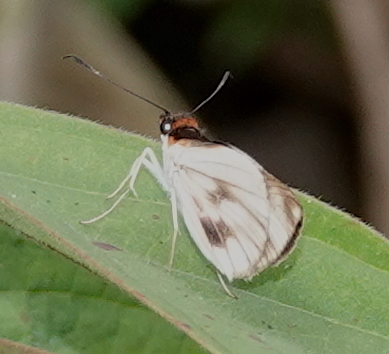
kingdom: Animalia
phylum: Arthropoda
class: Insecta
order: Lepidoptera
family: Hesperiidae
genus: Troyus
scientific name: Troyus
